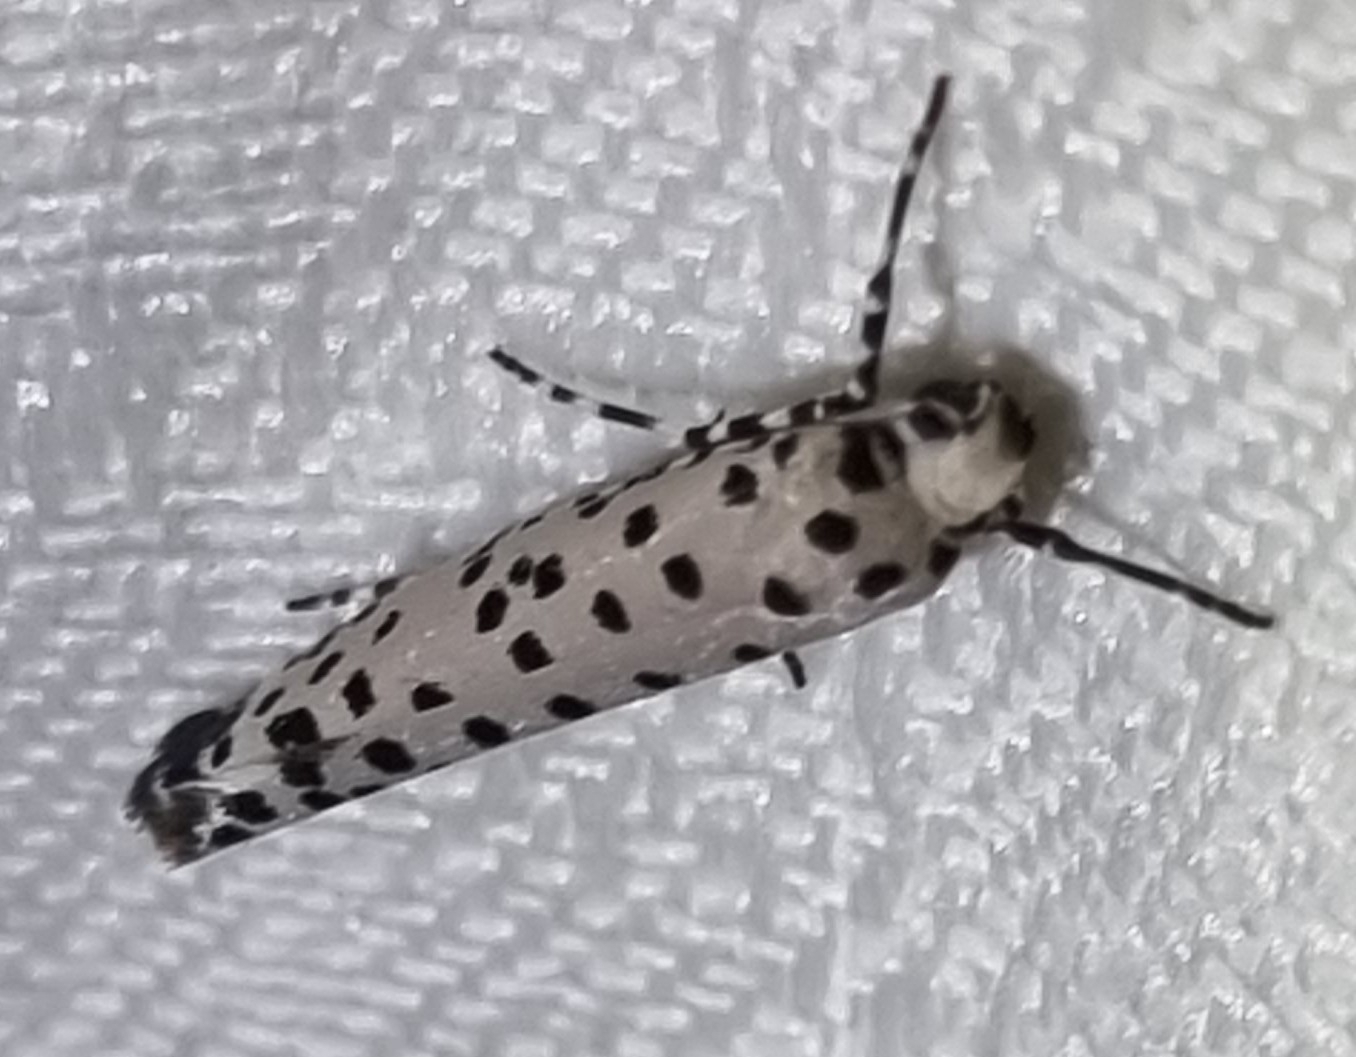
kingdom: Animalia
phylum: Arthropoda
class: Insecta
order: Lepidoptera
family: Yponomeutidae
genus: Yponomeuta
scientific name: Yponomeuta pustulellus
